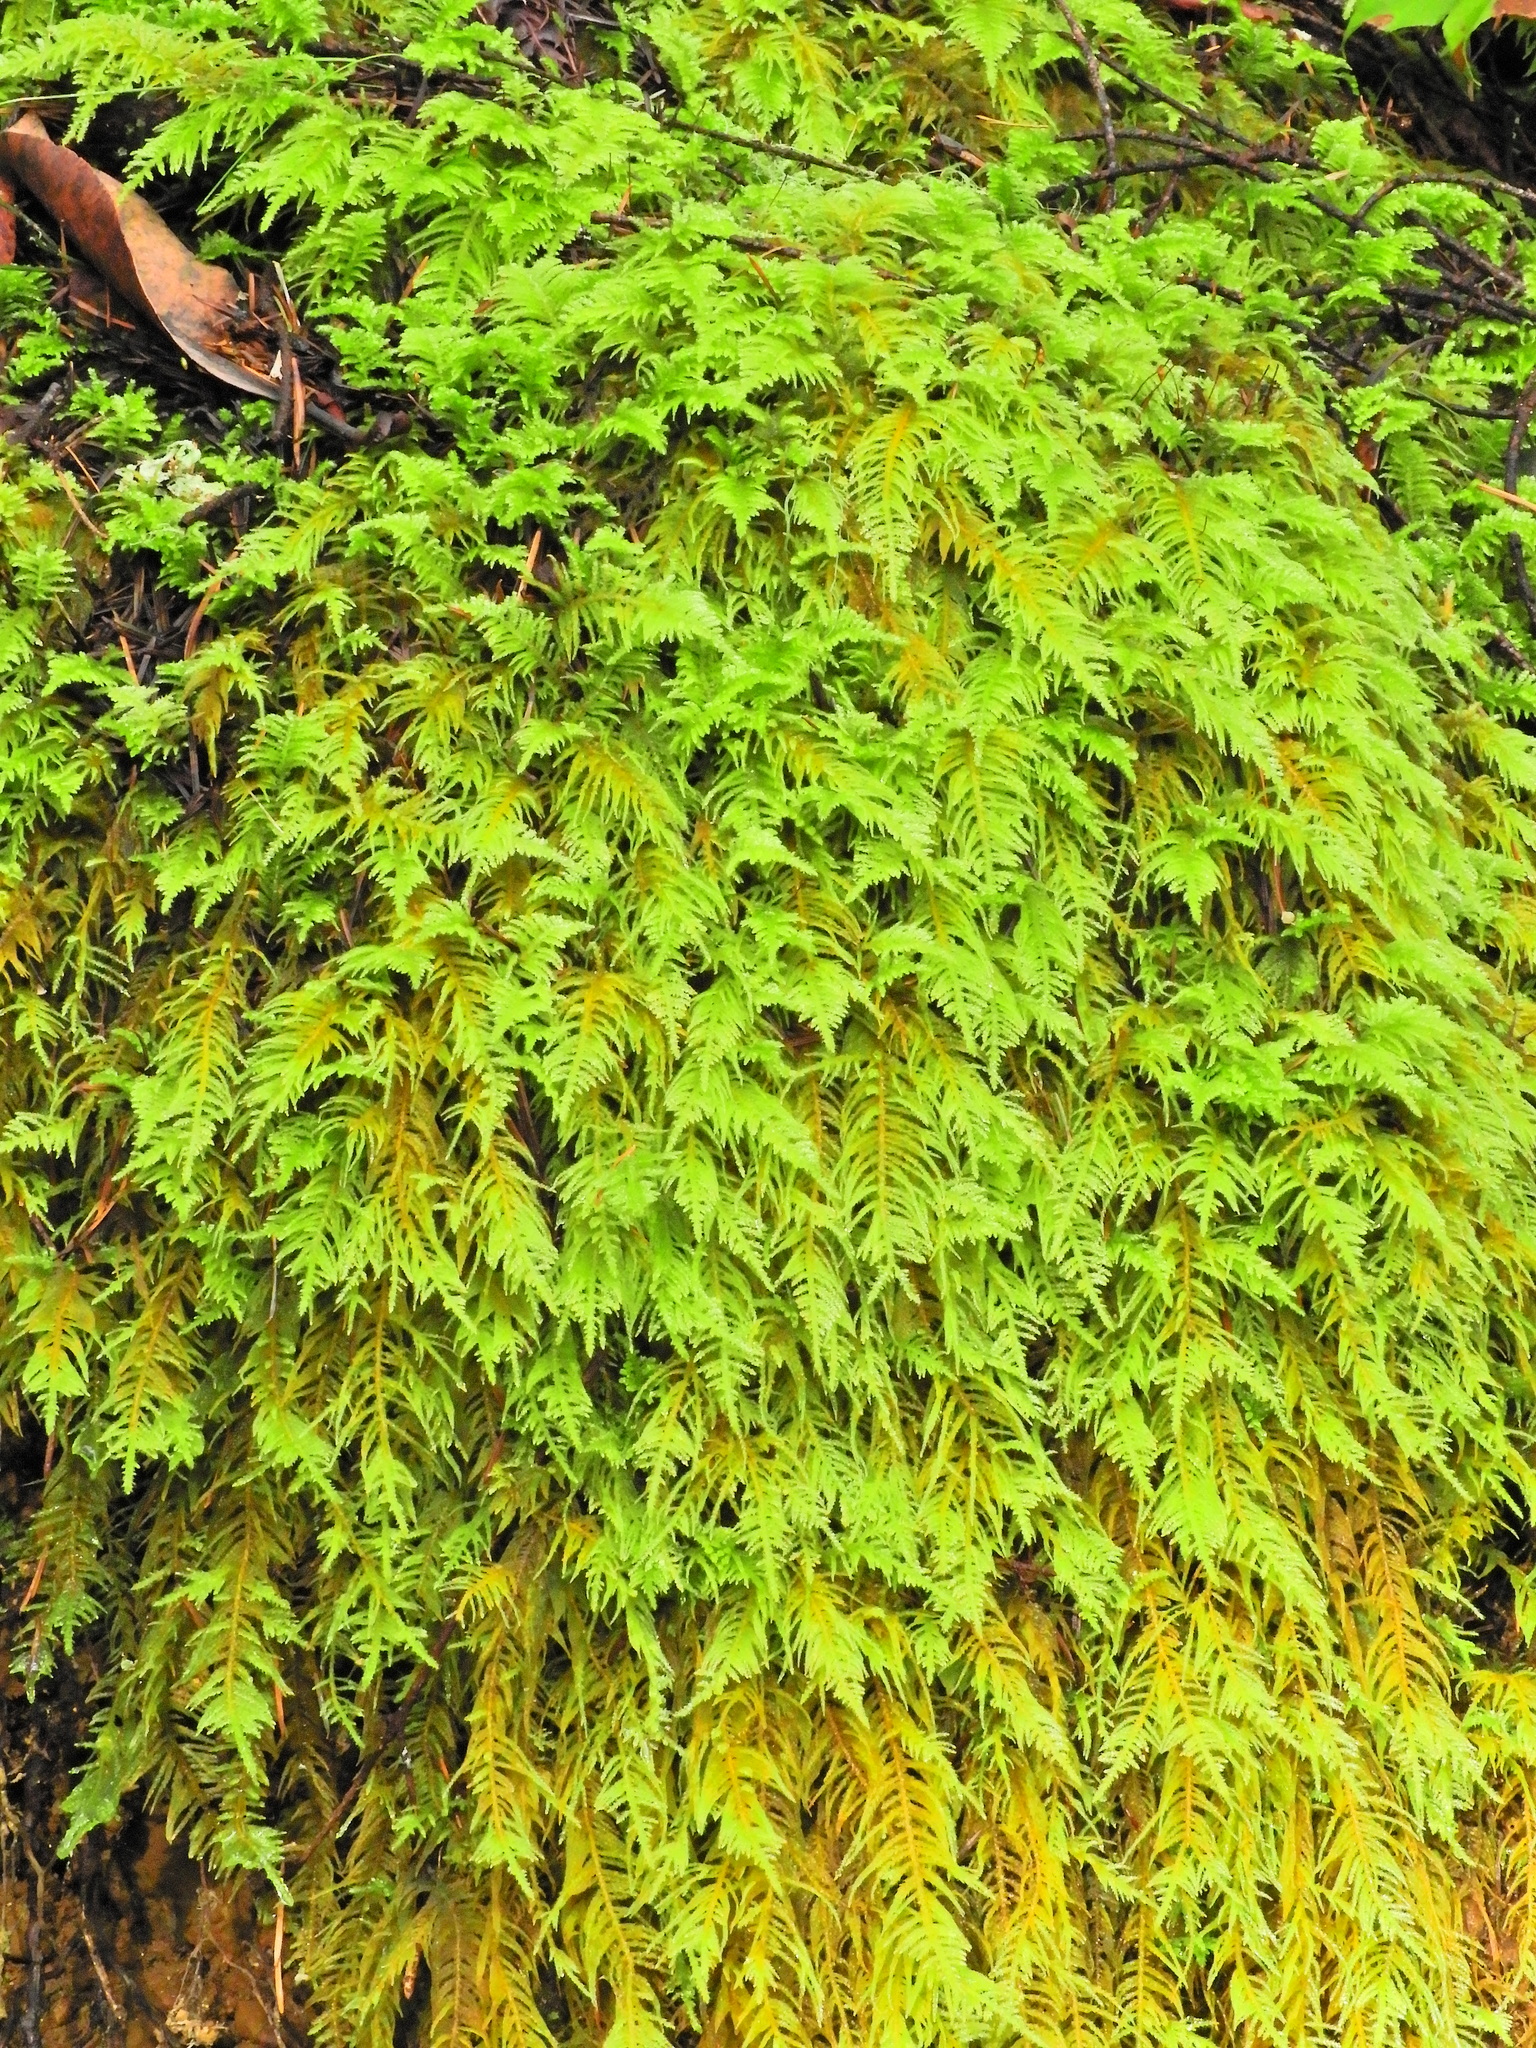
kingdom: Plantae
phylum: Bryophyta
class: Bryopsida
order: Hypnales
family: Brachytheciaceae
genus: Kindbergia
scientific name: Kindbergia oregana
